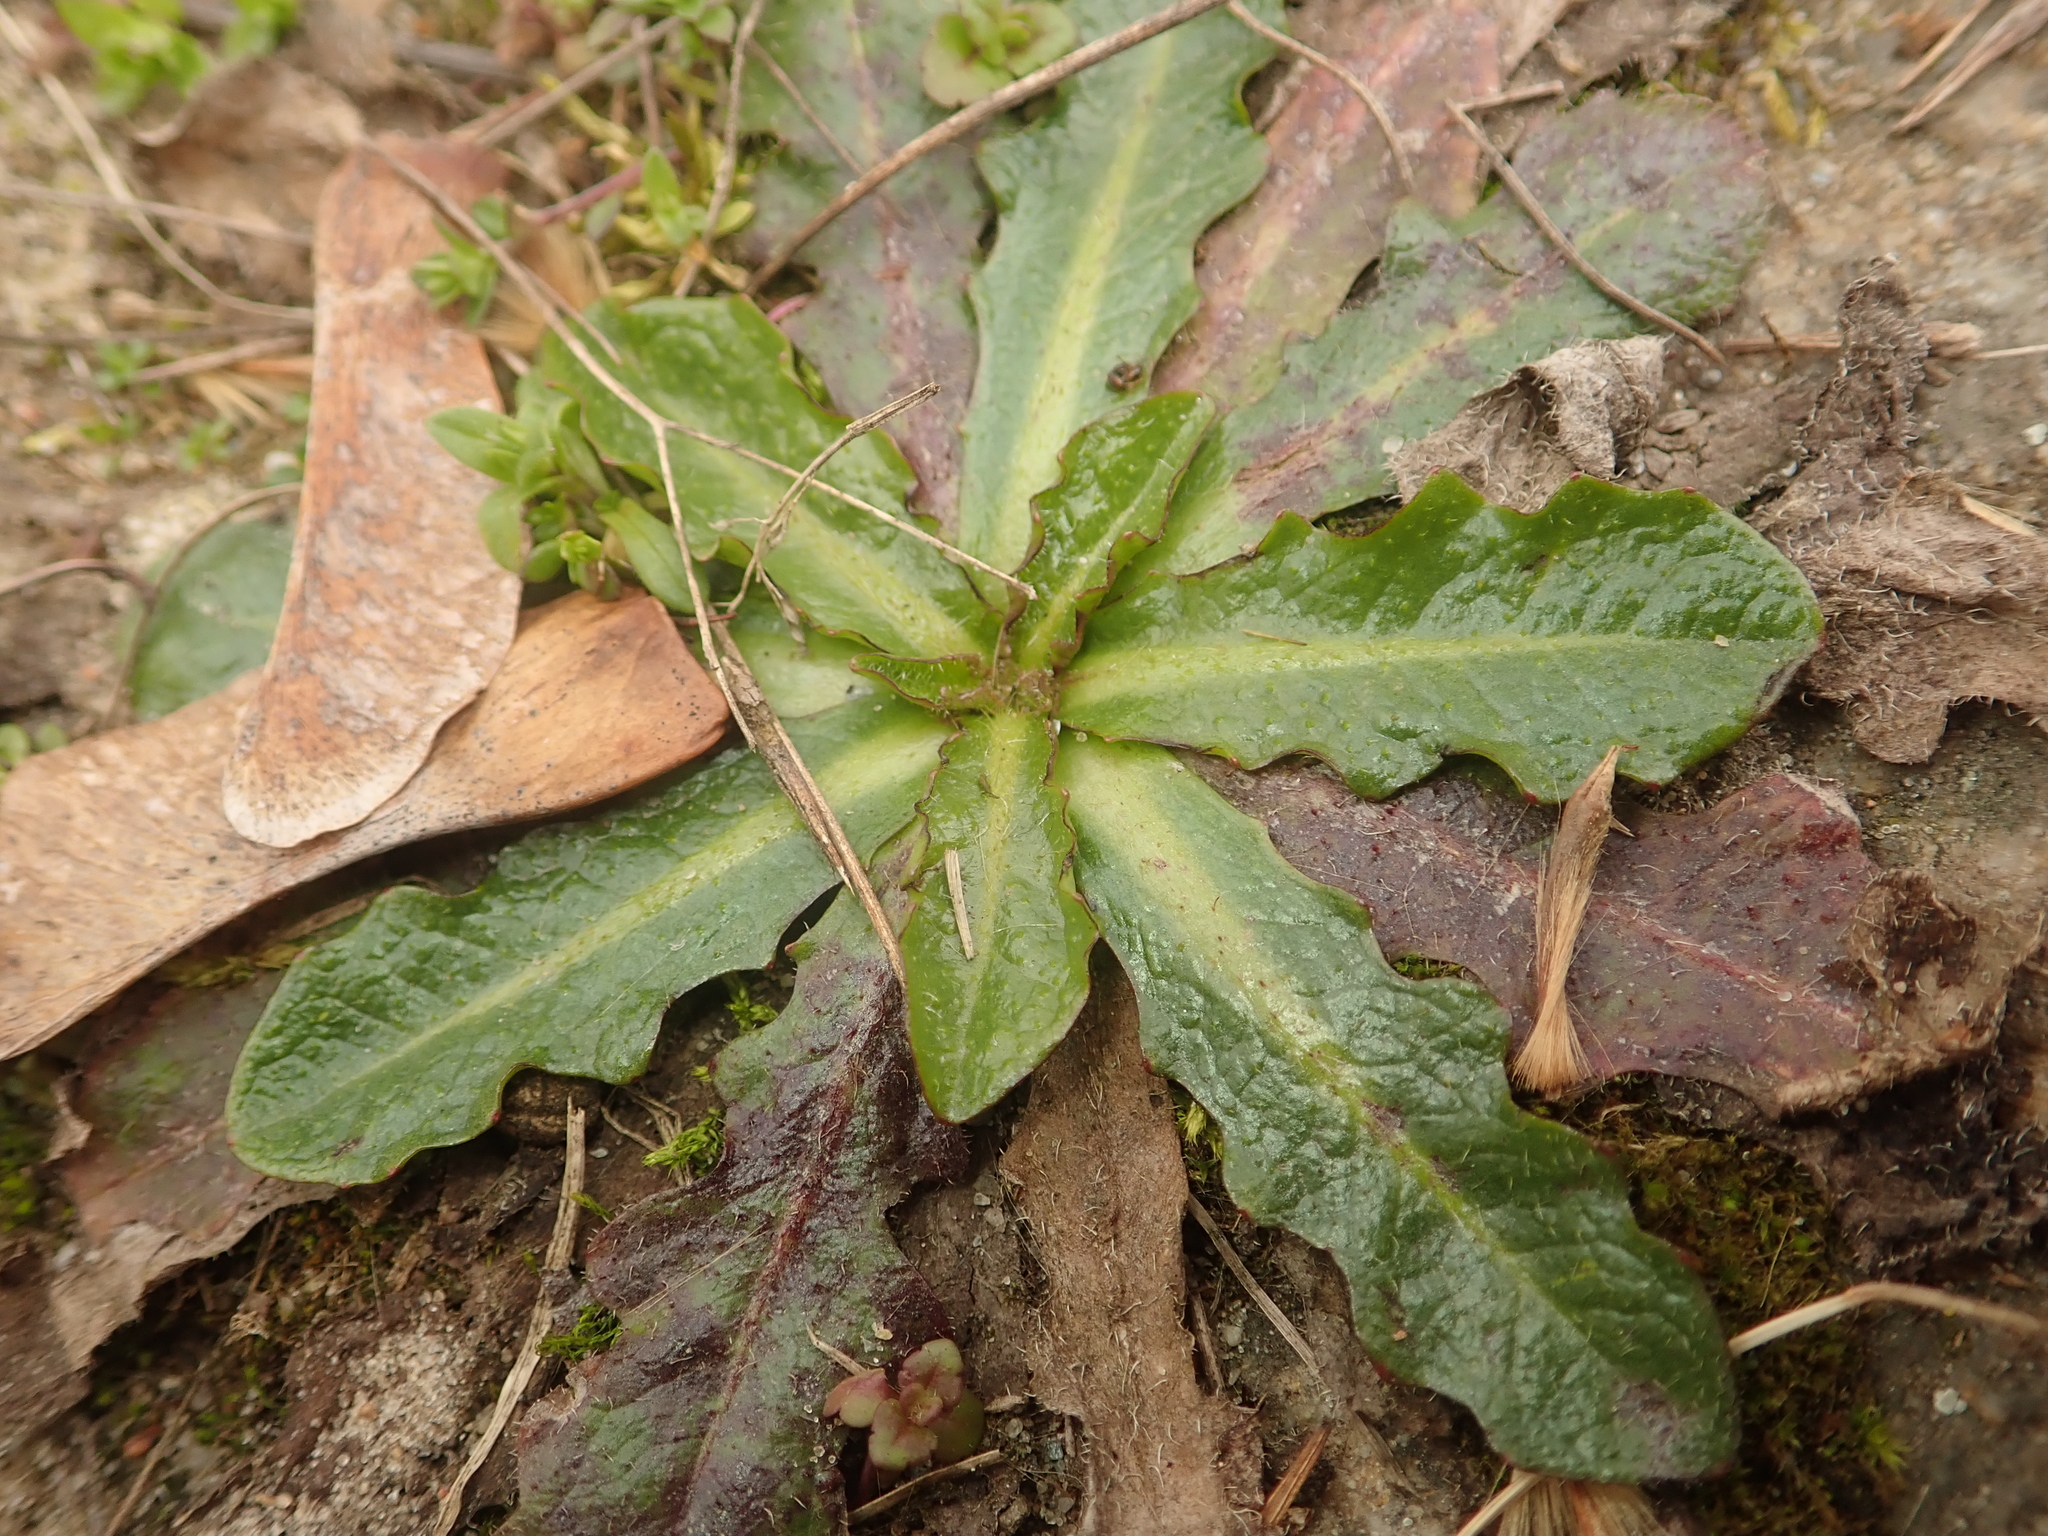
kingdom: Plantae
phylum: Tracheophyta
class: Magnoliopsida
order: Asterales
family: Asteraceae
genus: Hypochaeris
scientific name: Hypochaeris radicata
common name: Flatweed
